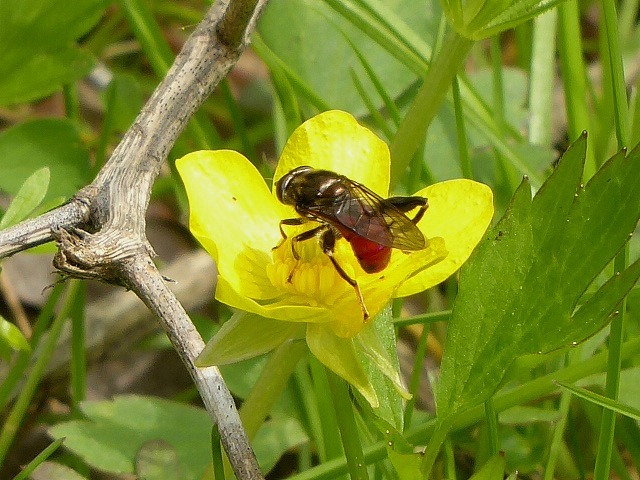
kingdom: Animalia
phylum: Arthropoda
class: Insecta
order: Diptera
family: Syrphidae
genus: Chalcosyrphus
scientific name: Chalcosyrphus libo
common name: Long-haired forest fly
